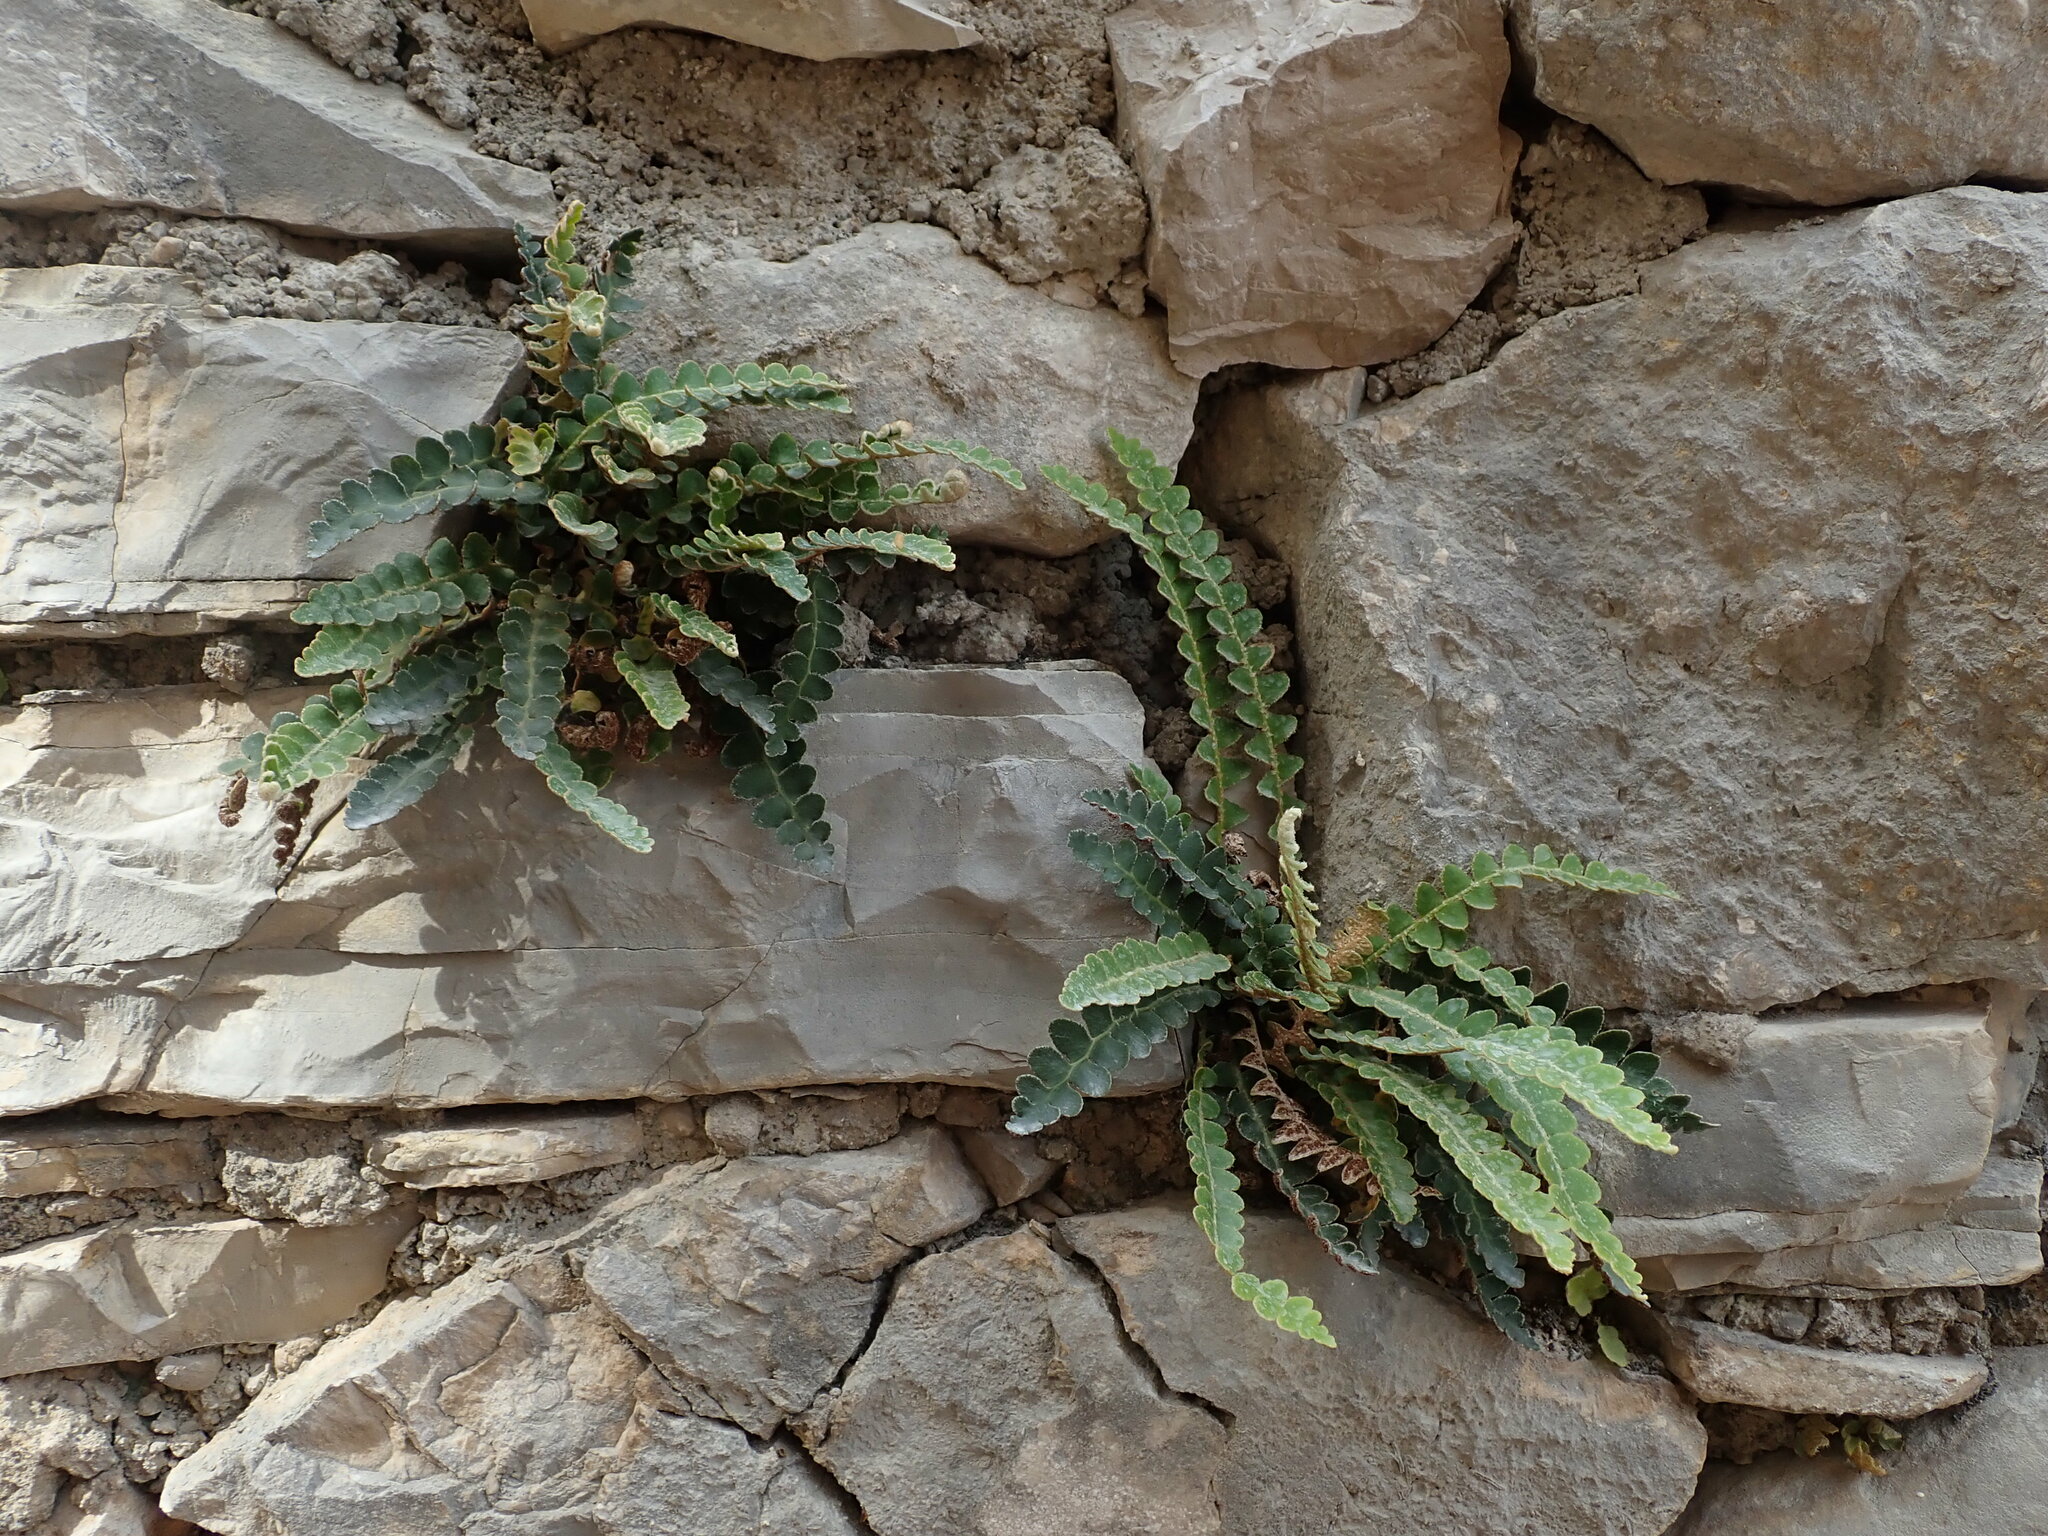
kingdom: Plantae
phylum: Tracheophyta
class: Polypodiopsida
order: Polypodiales
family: Aspleniaceae
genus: Asplenium
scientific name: Asplenium ceterach
